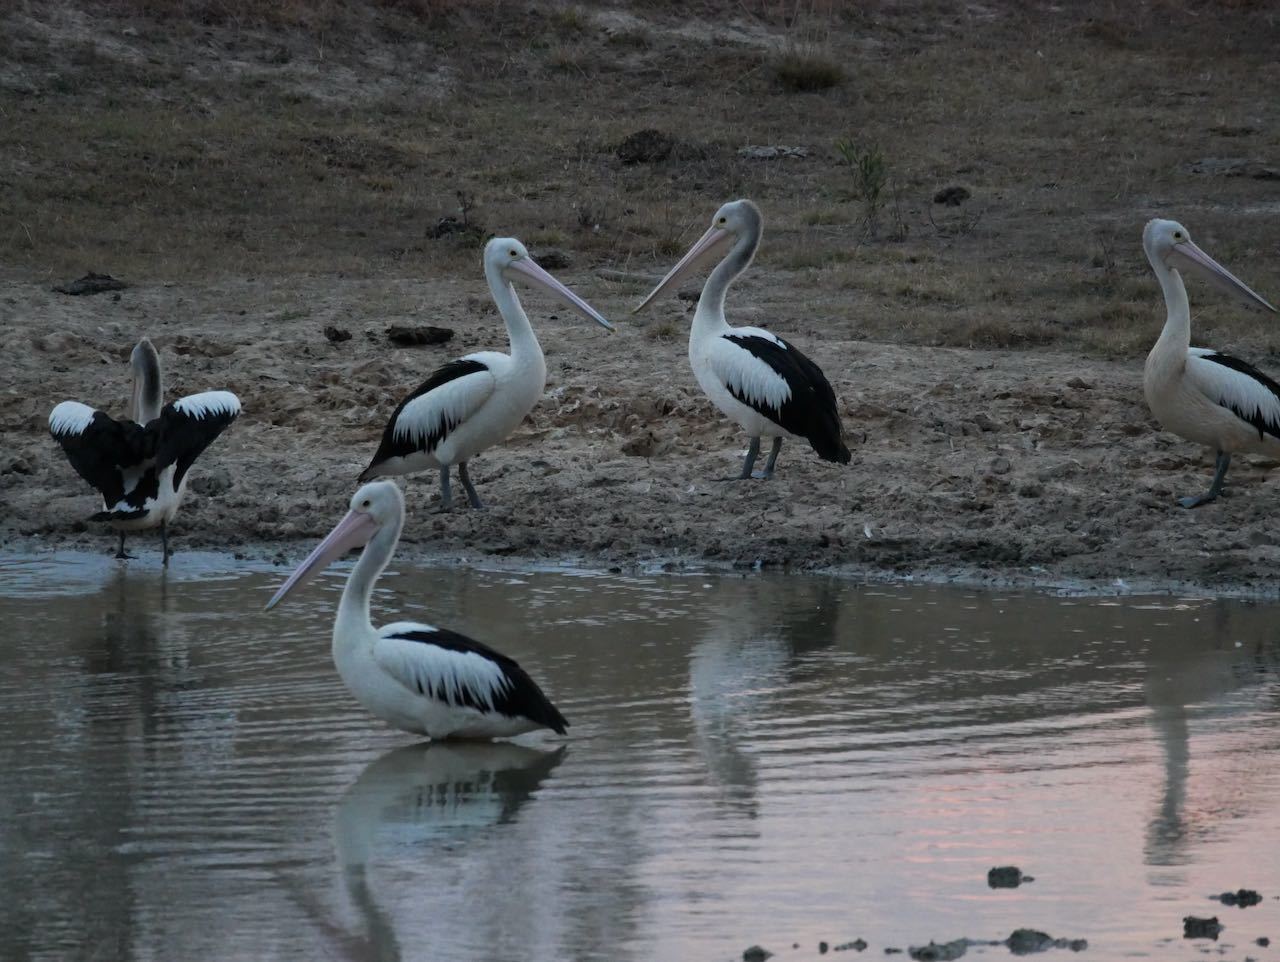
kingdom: Animalia
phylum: Chordata
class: Aves
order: Pelecaniformes
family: Pelecanidae
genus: Pelecanus
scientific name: Pelecanus conspicillatus
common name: Australian pelican
